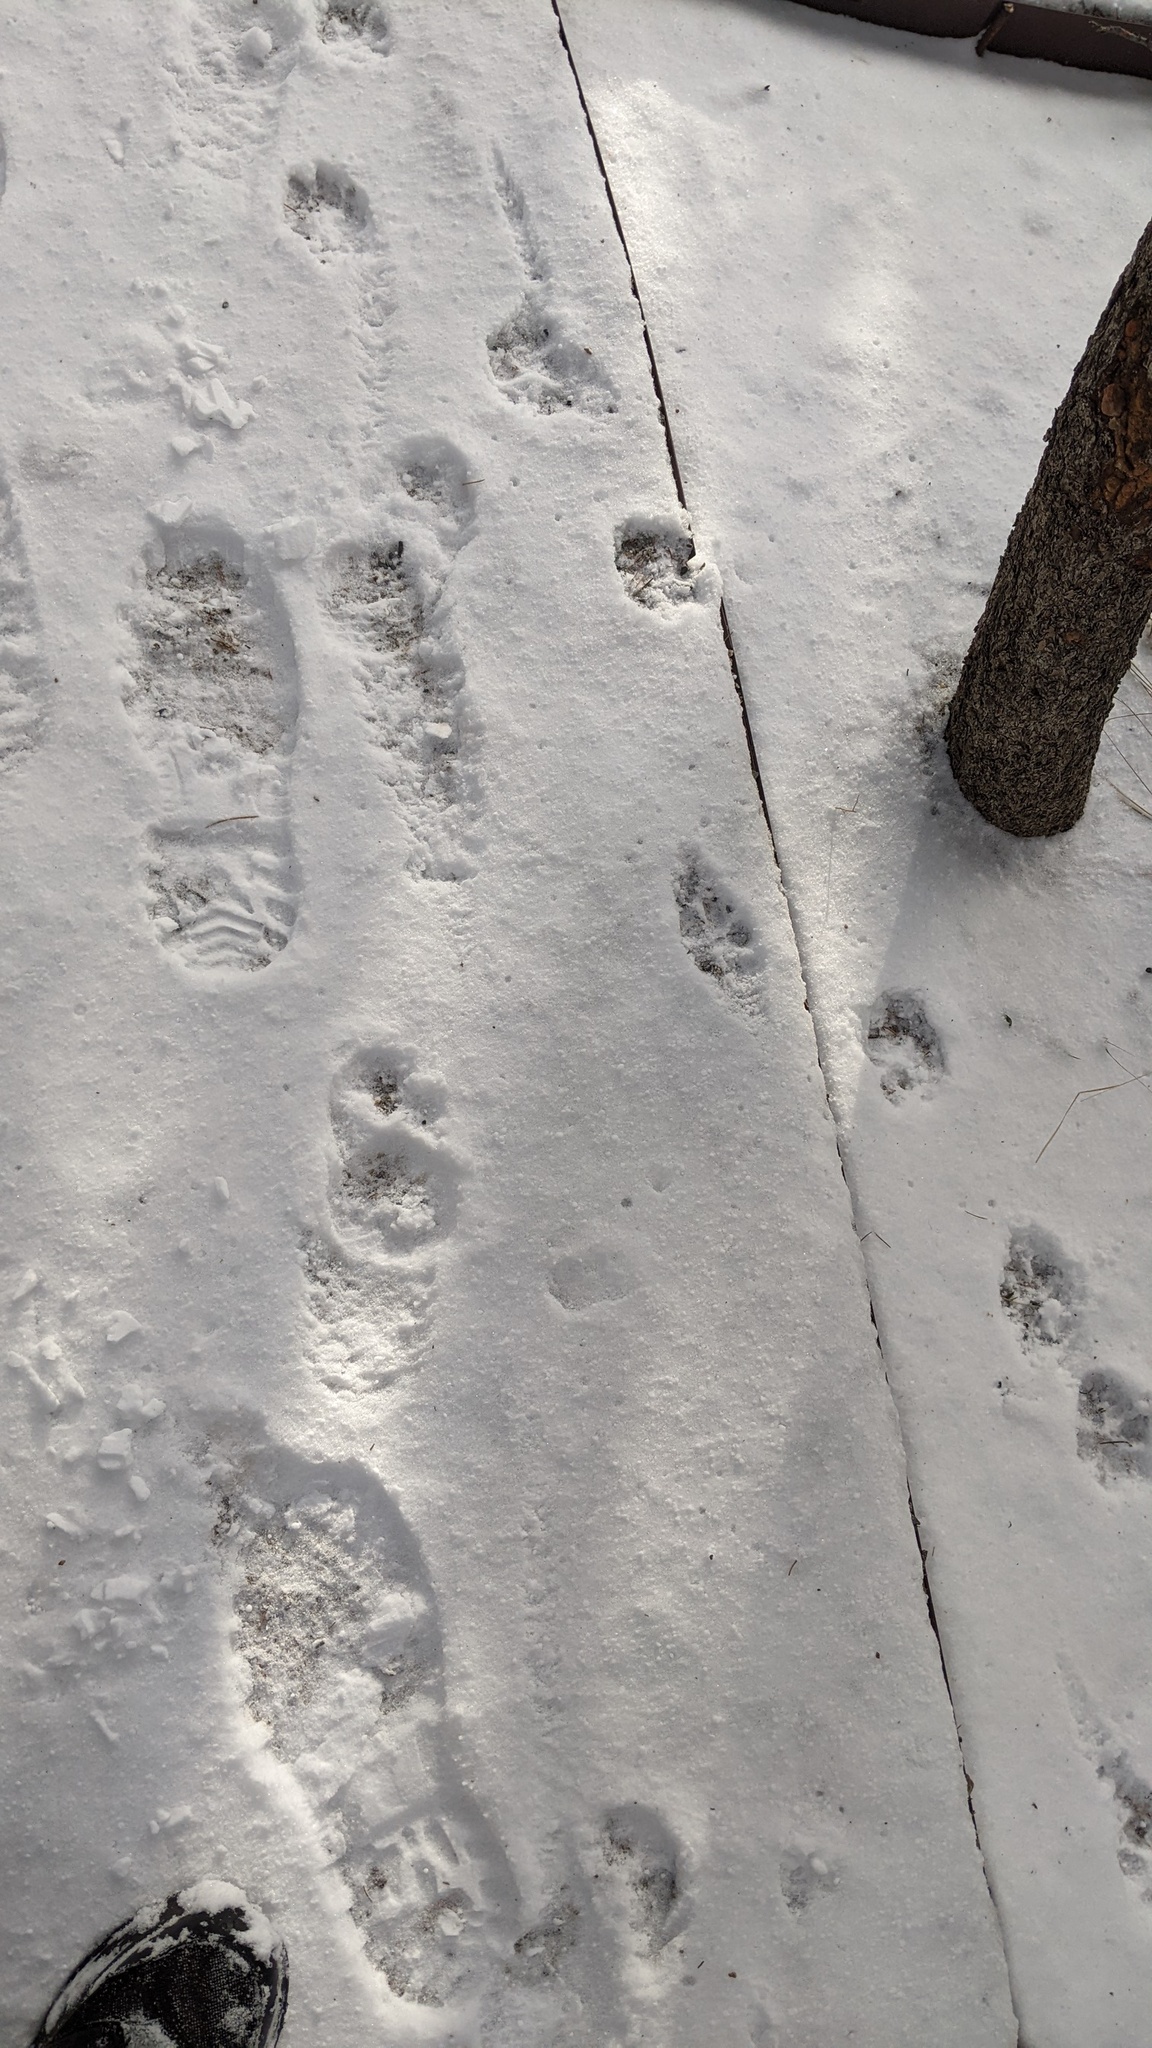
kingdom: Animalia
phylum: Chordata
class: Mammalia
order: Carnivora
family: Canidae
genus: Canis
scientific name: Canis lupus
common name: Gray wolf
